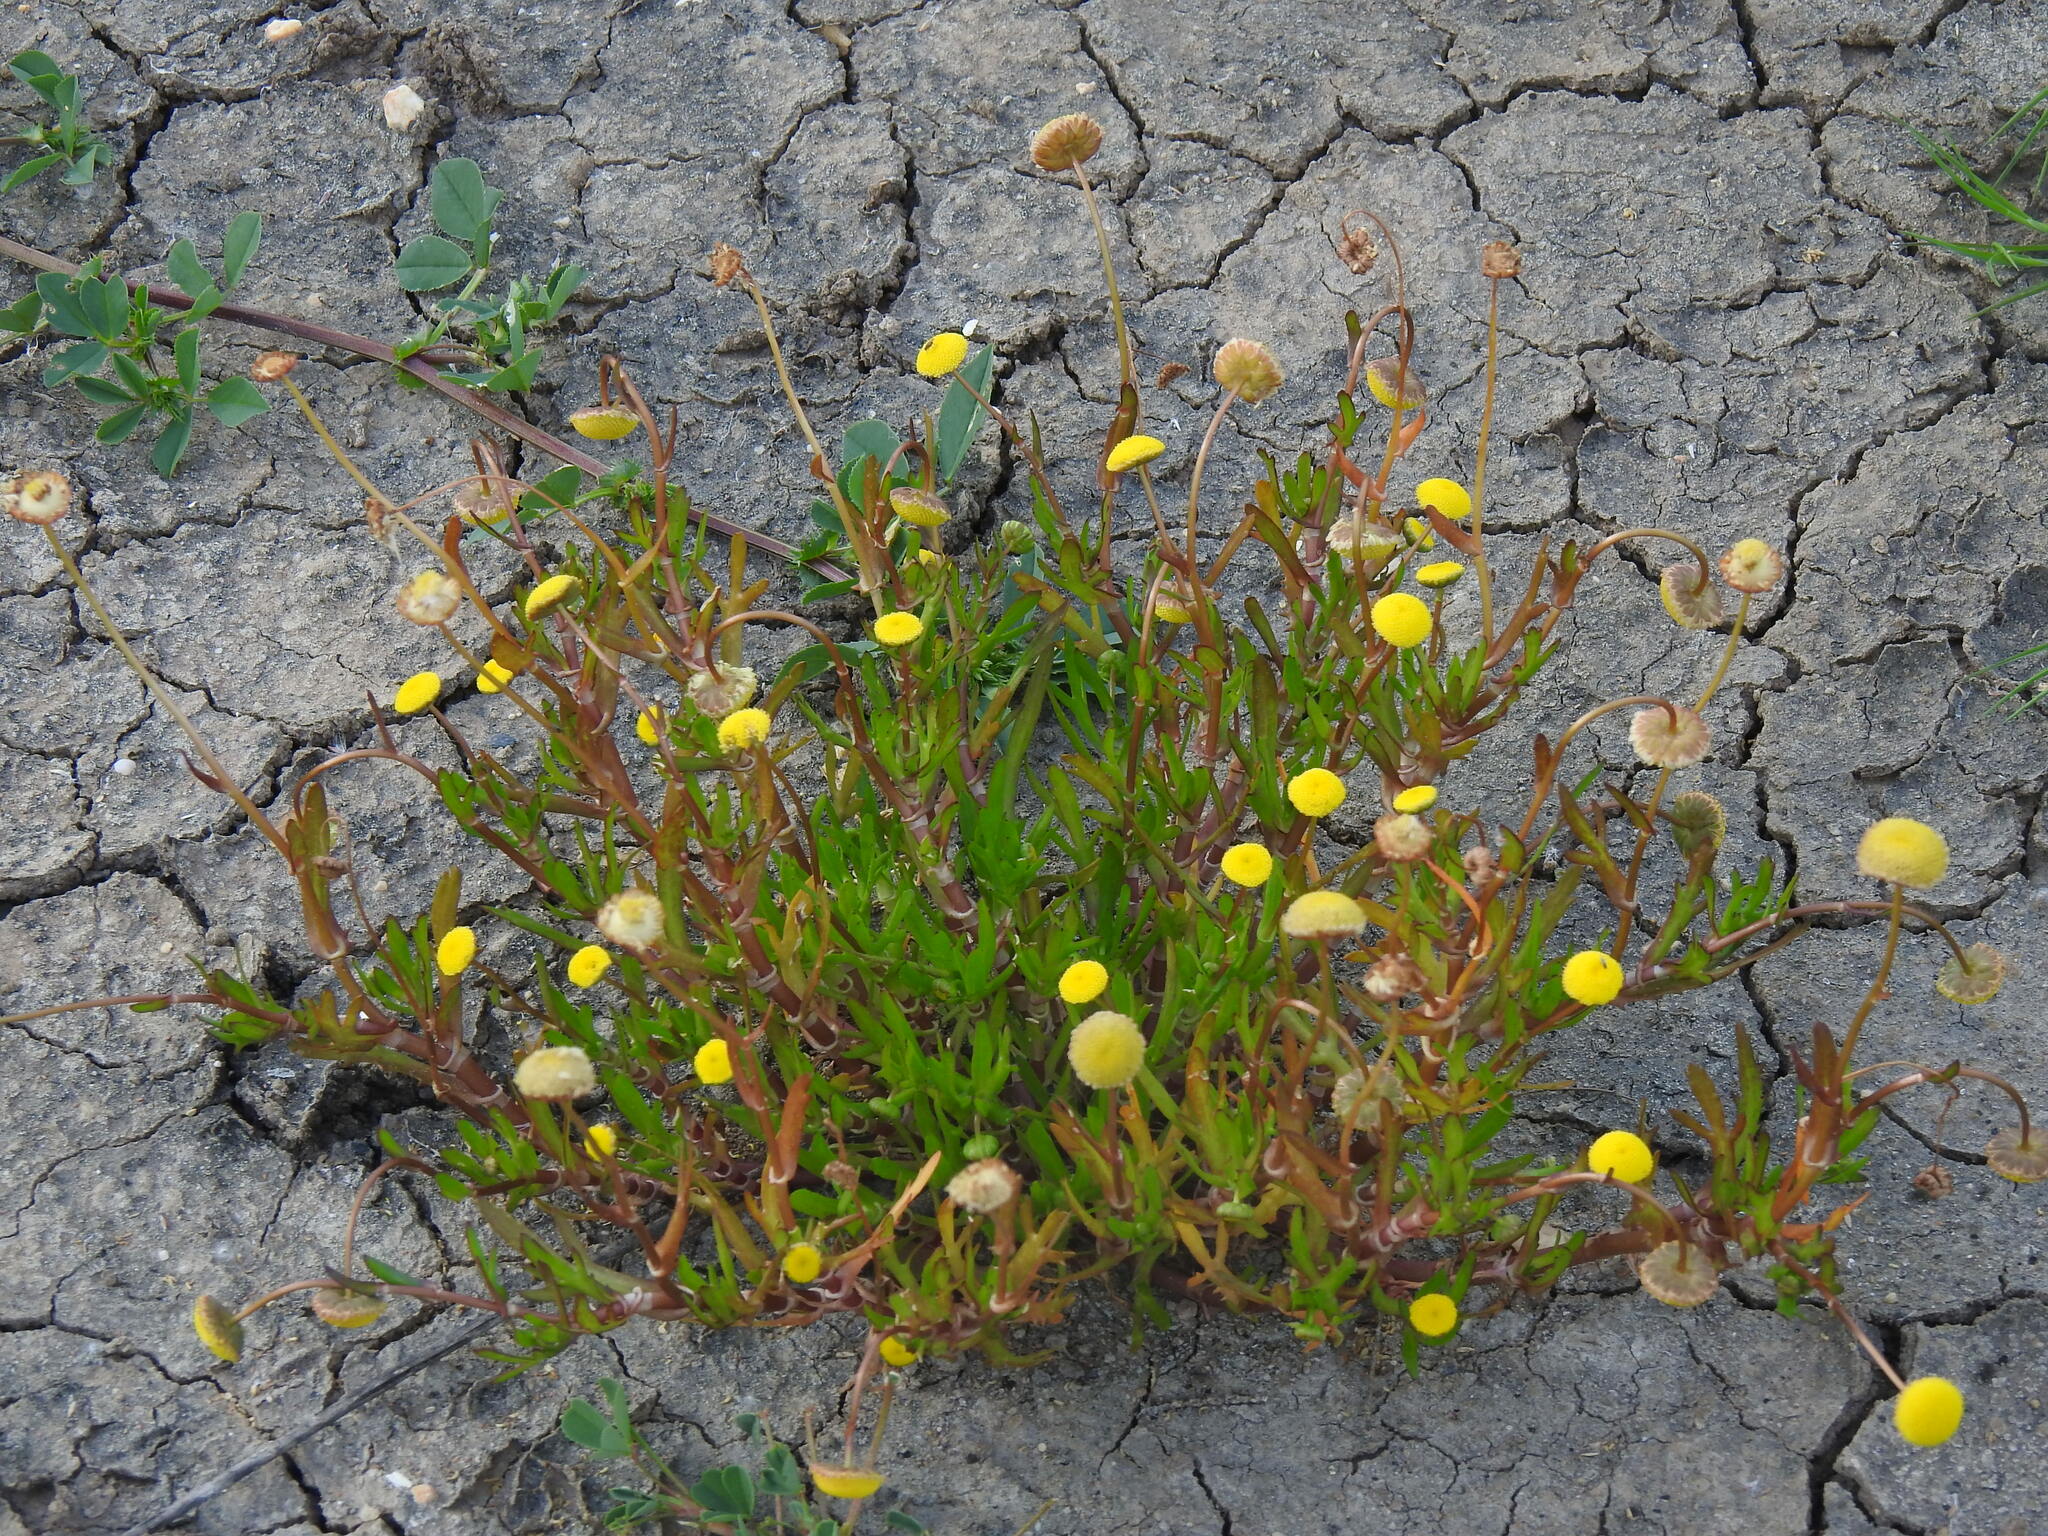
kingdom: Plantae
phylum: Tracheophyta
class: Magnoliopsida
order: Asterales
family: Asteraceae
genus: Cotula
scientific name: Cotula coronopifolia
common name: Buttonweed
